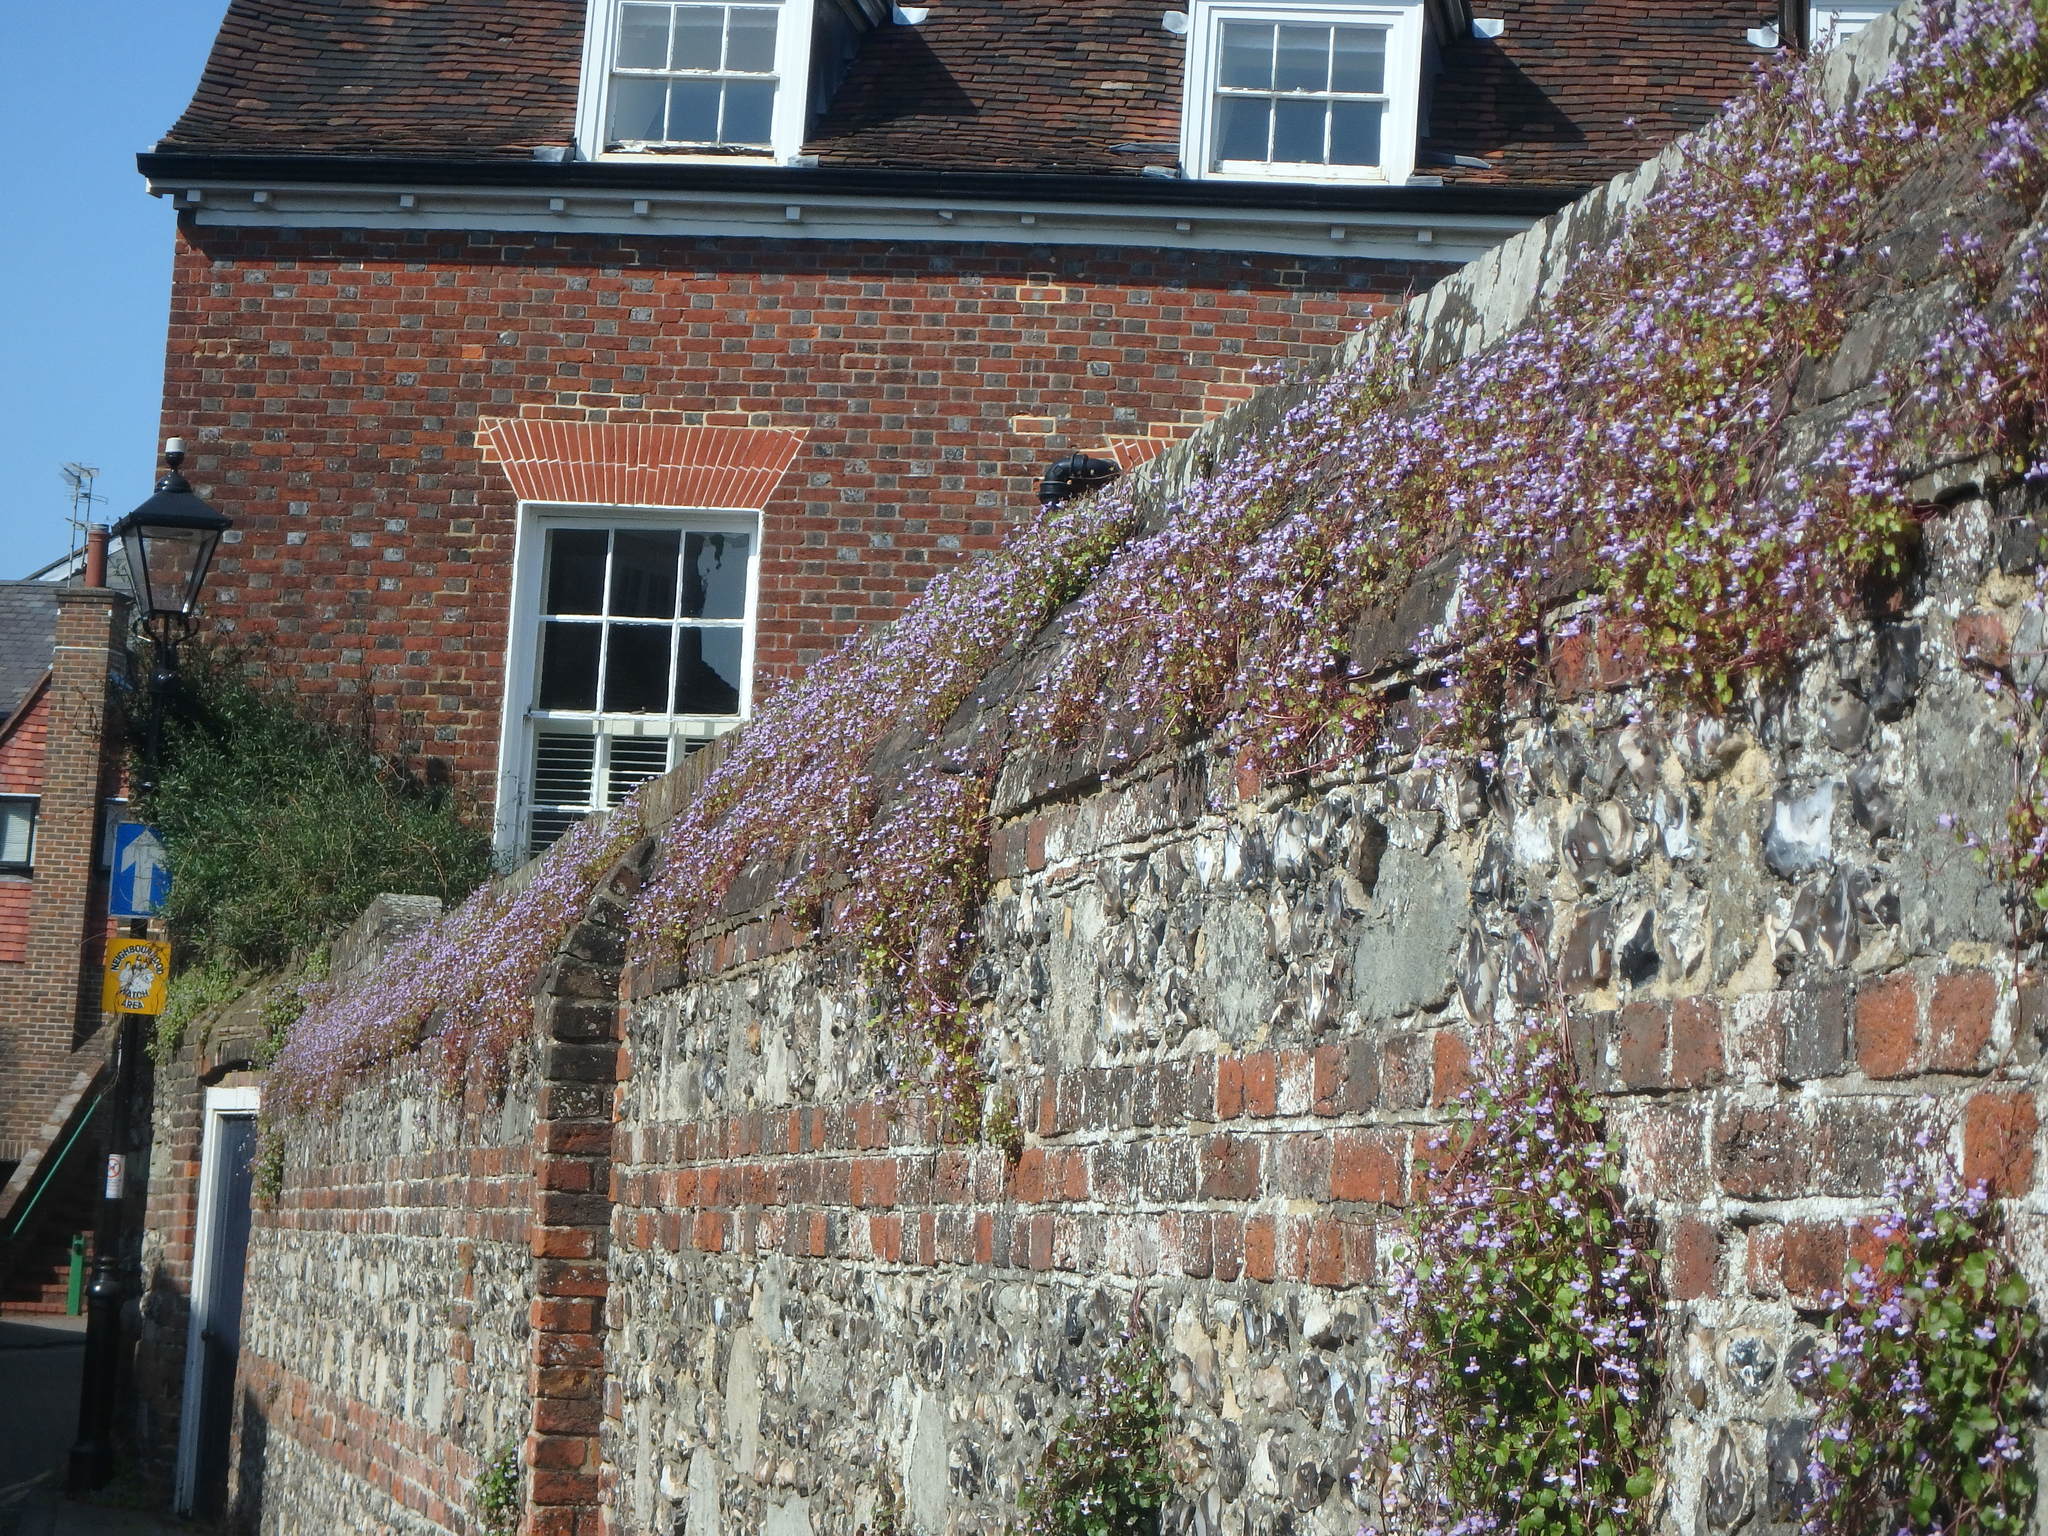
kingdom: Plantae
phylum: Tracheophyta
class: Magnoliopsida
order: Lamiales
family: Plantaginaceae
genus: Cymbalaria
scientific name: Cymbalaria muralis
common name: Ivy-leaved toadflax
